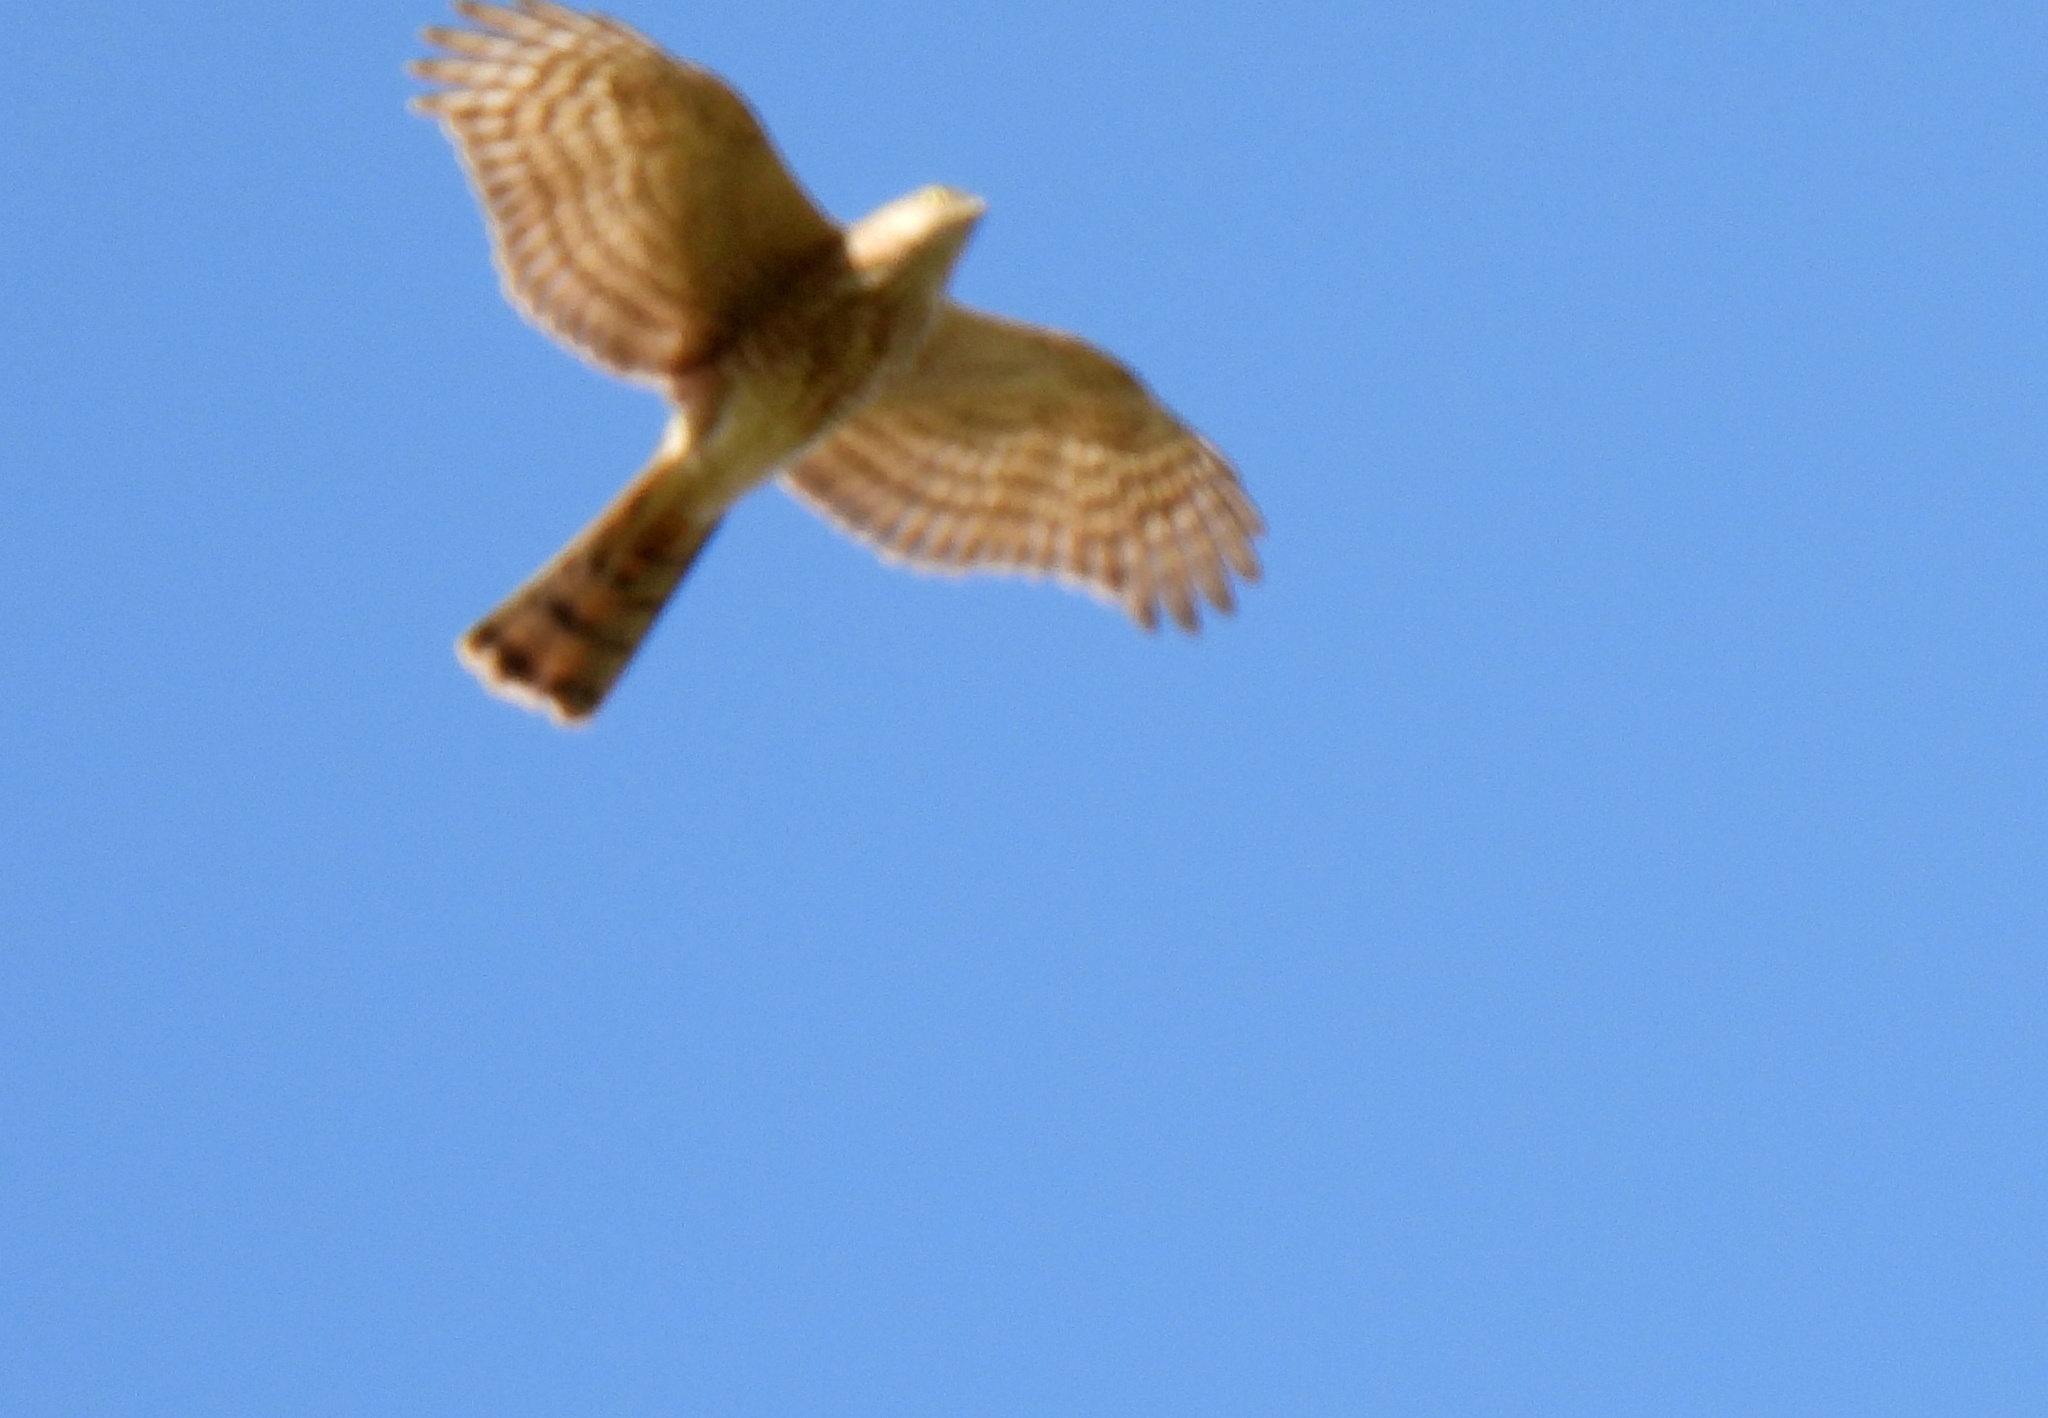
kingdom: Animalia
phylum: Chordata
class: Aves
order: Accipitriformes
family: Accipitridae
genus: Accipiter
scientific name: Accipiter nisus
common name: Eurasian sparrowhawk
